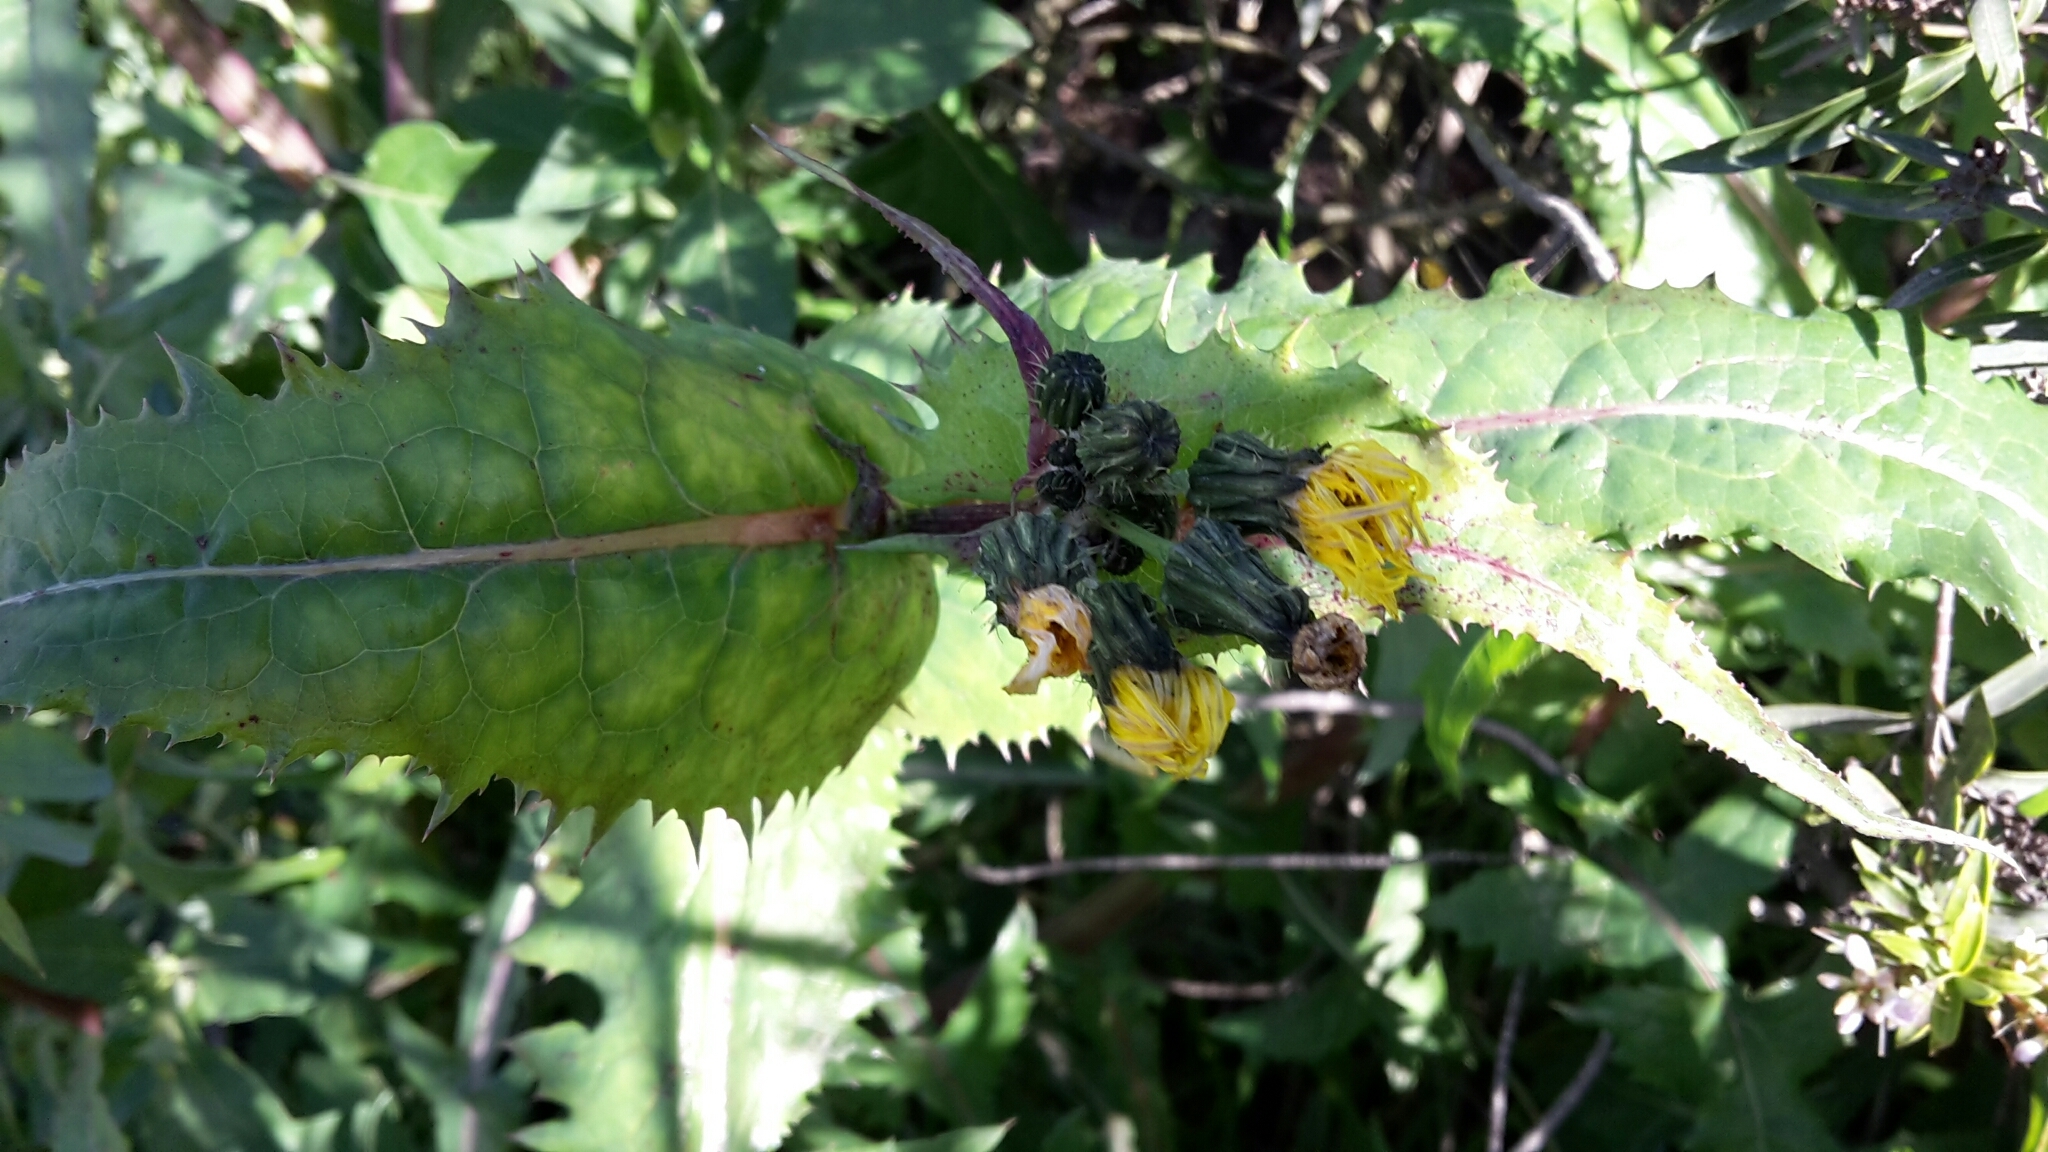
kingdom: Plantae
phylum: Tracheophyta
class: Magnoliopsida
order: Asterales
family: Asteraceae
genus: Sonchus
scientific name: Sonchus oleraceus
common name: Common sowthistle
